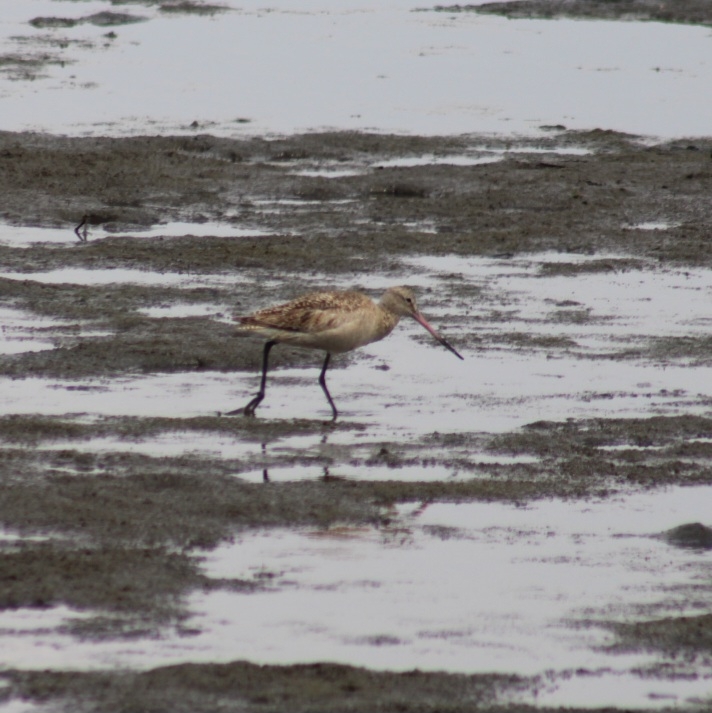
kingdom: Animalia
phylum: Chordata
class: Aves
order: Charadriiformes
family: Scolopacidae
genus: Limosa
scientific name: Limosa fedoa
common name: Marbled godwit
